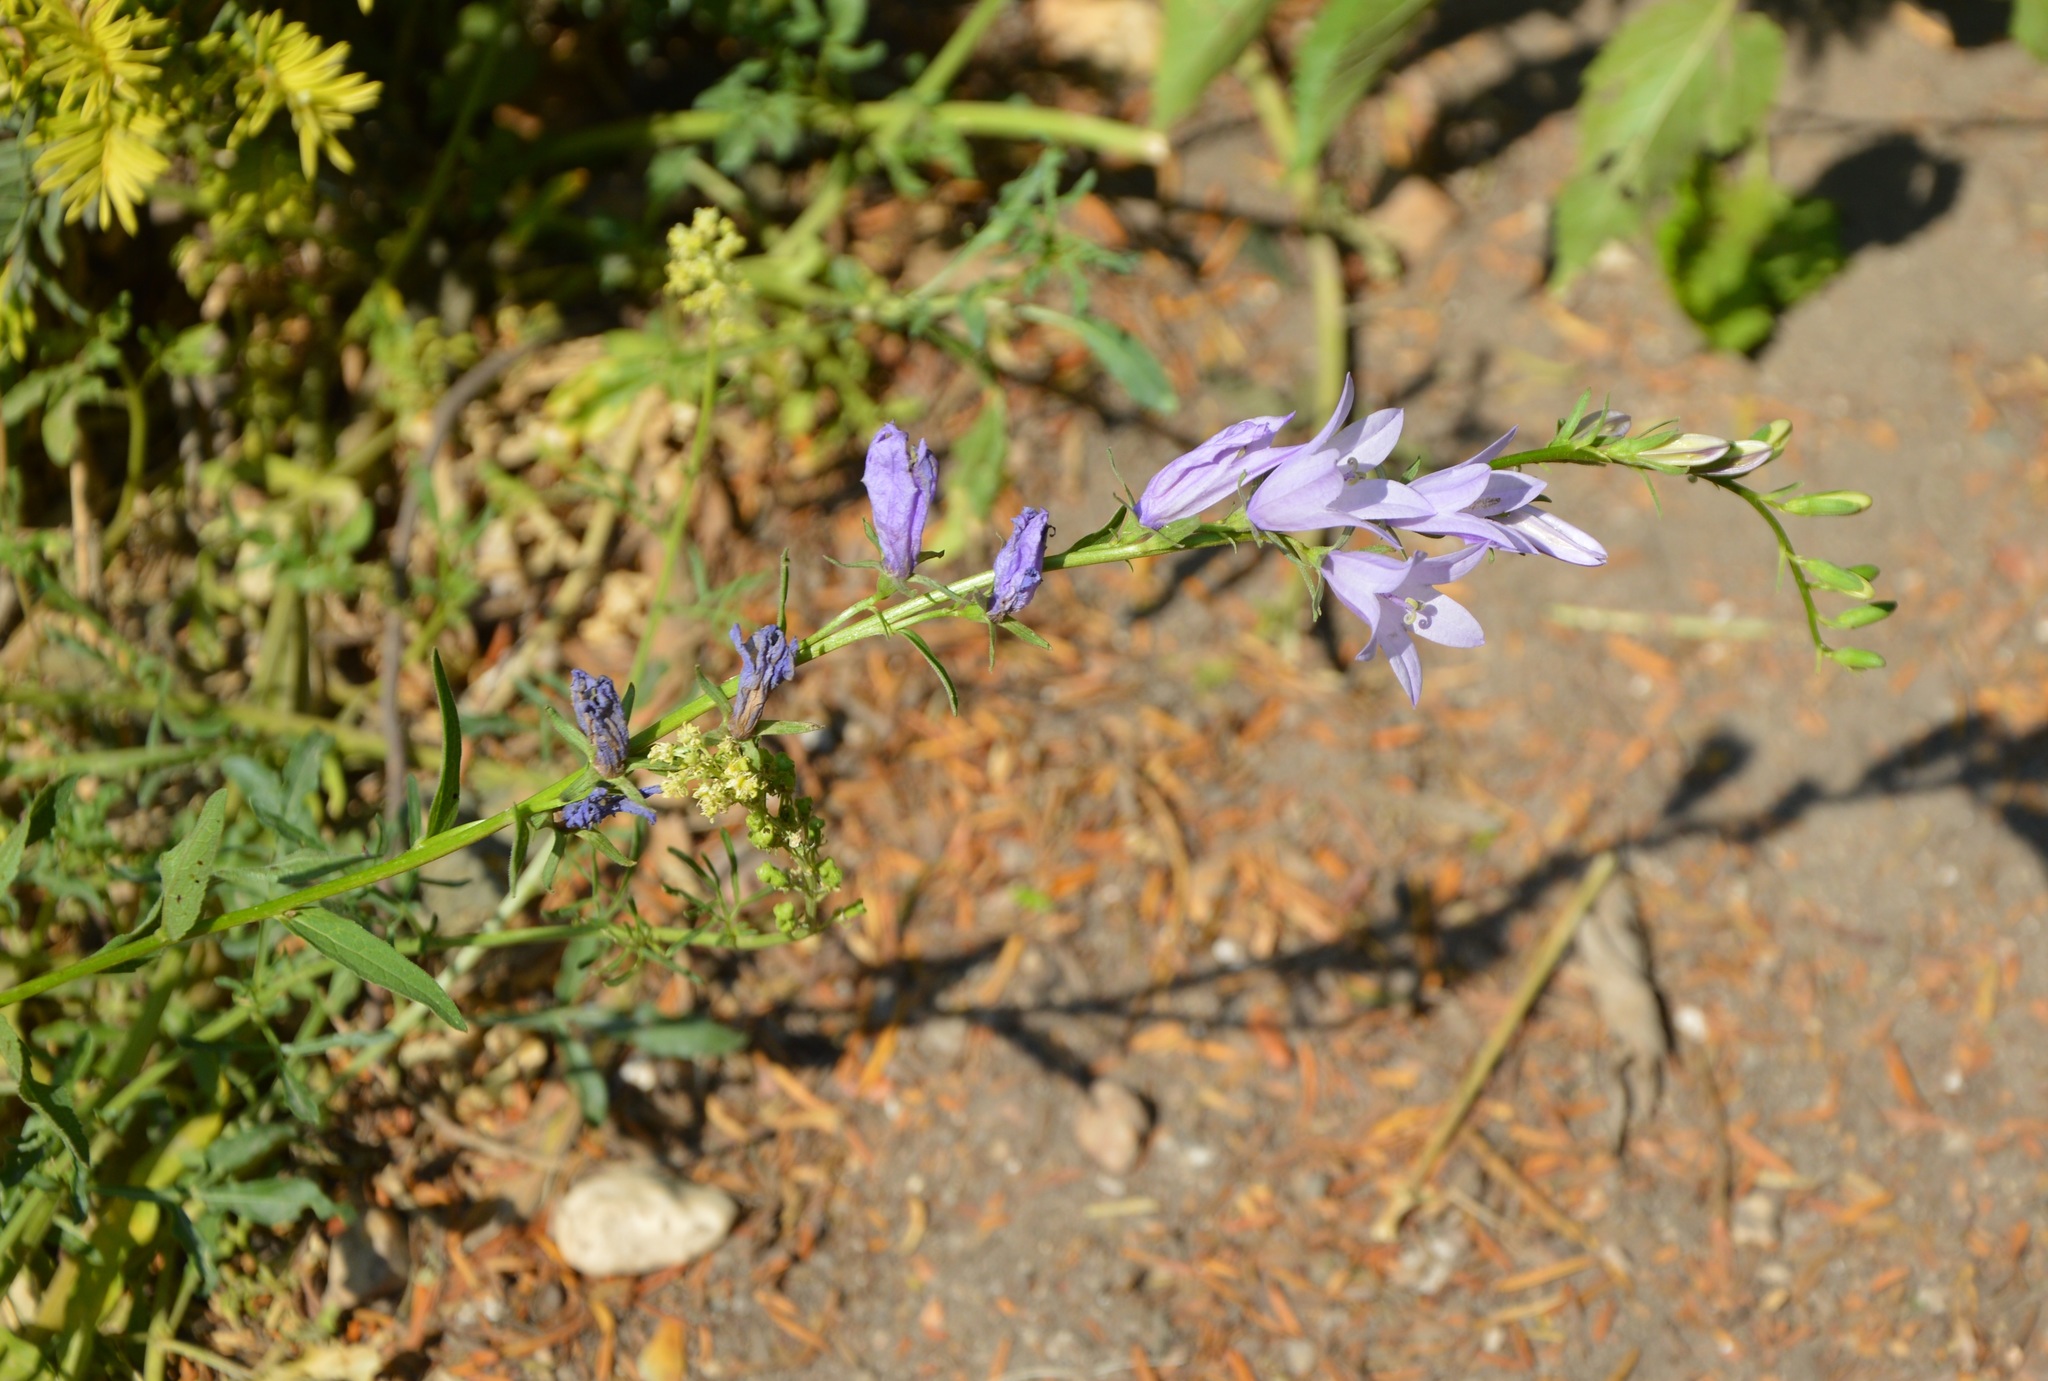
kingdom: Plantae
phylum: Tracheophyta
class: Magnoliopsida
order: Asterales
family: Campanulaceae
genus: Campanula
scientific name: Campanula rapunculoides
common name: Creeping bellflower
